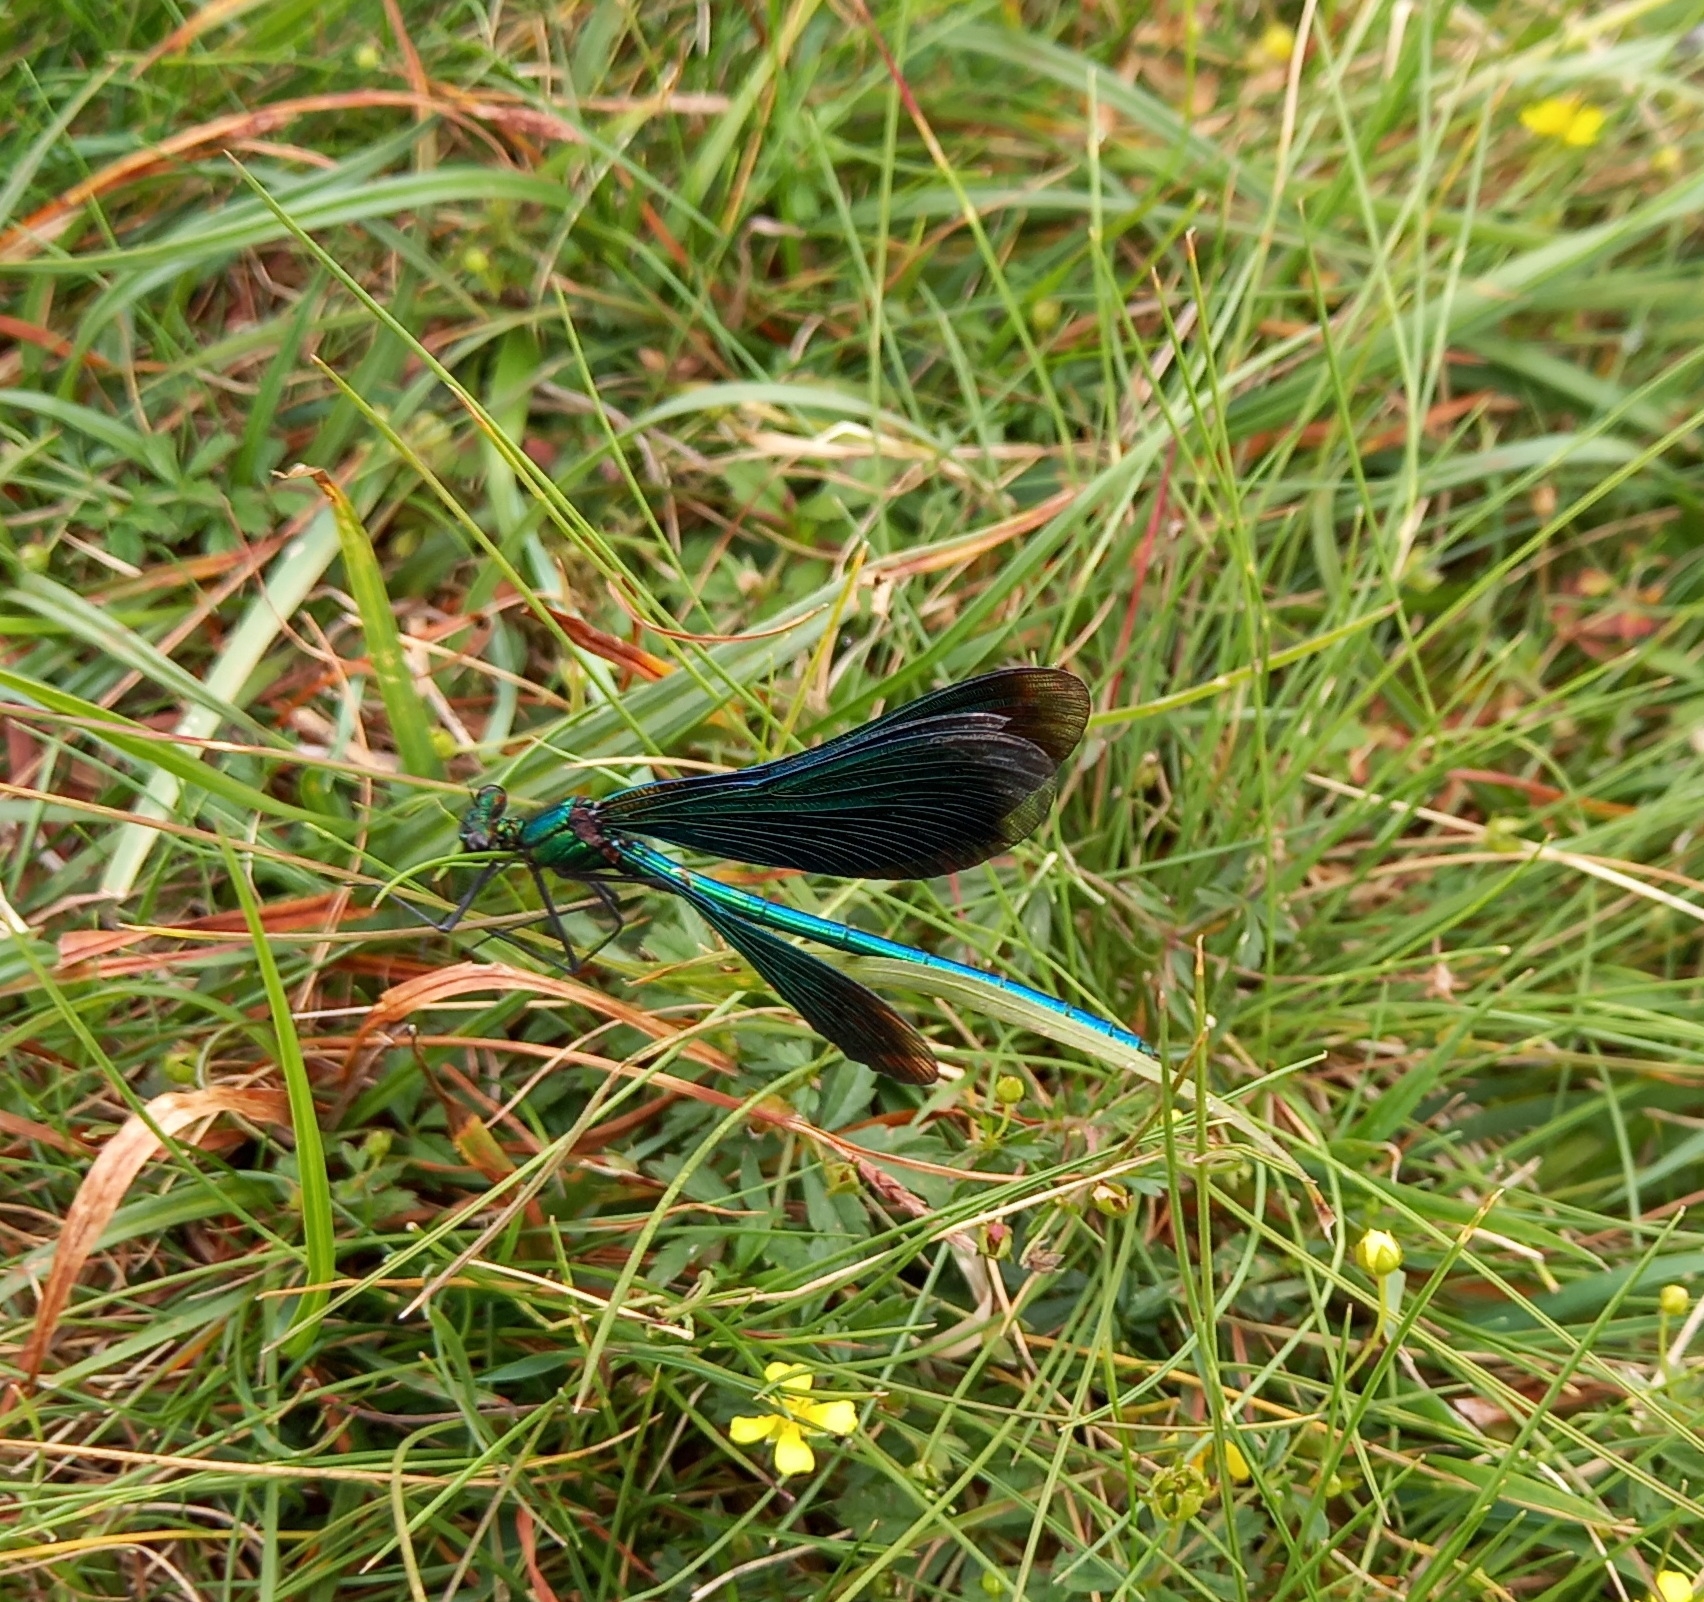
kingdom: Animalia
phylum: Arthropoda
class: Insecta
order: Odonata
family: Calopterygidae
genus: Calopteryx
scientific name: Calopteryx virgo
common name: Beautiful demoiselle
